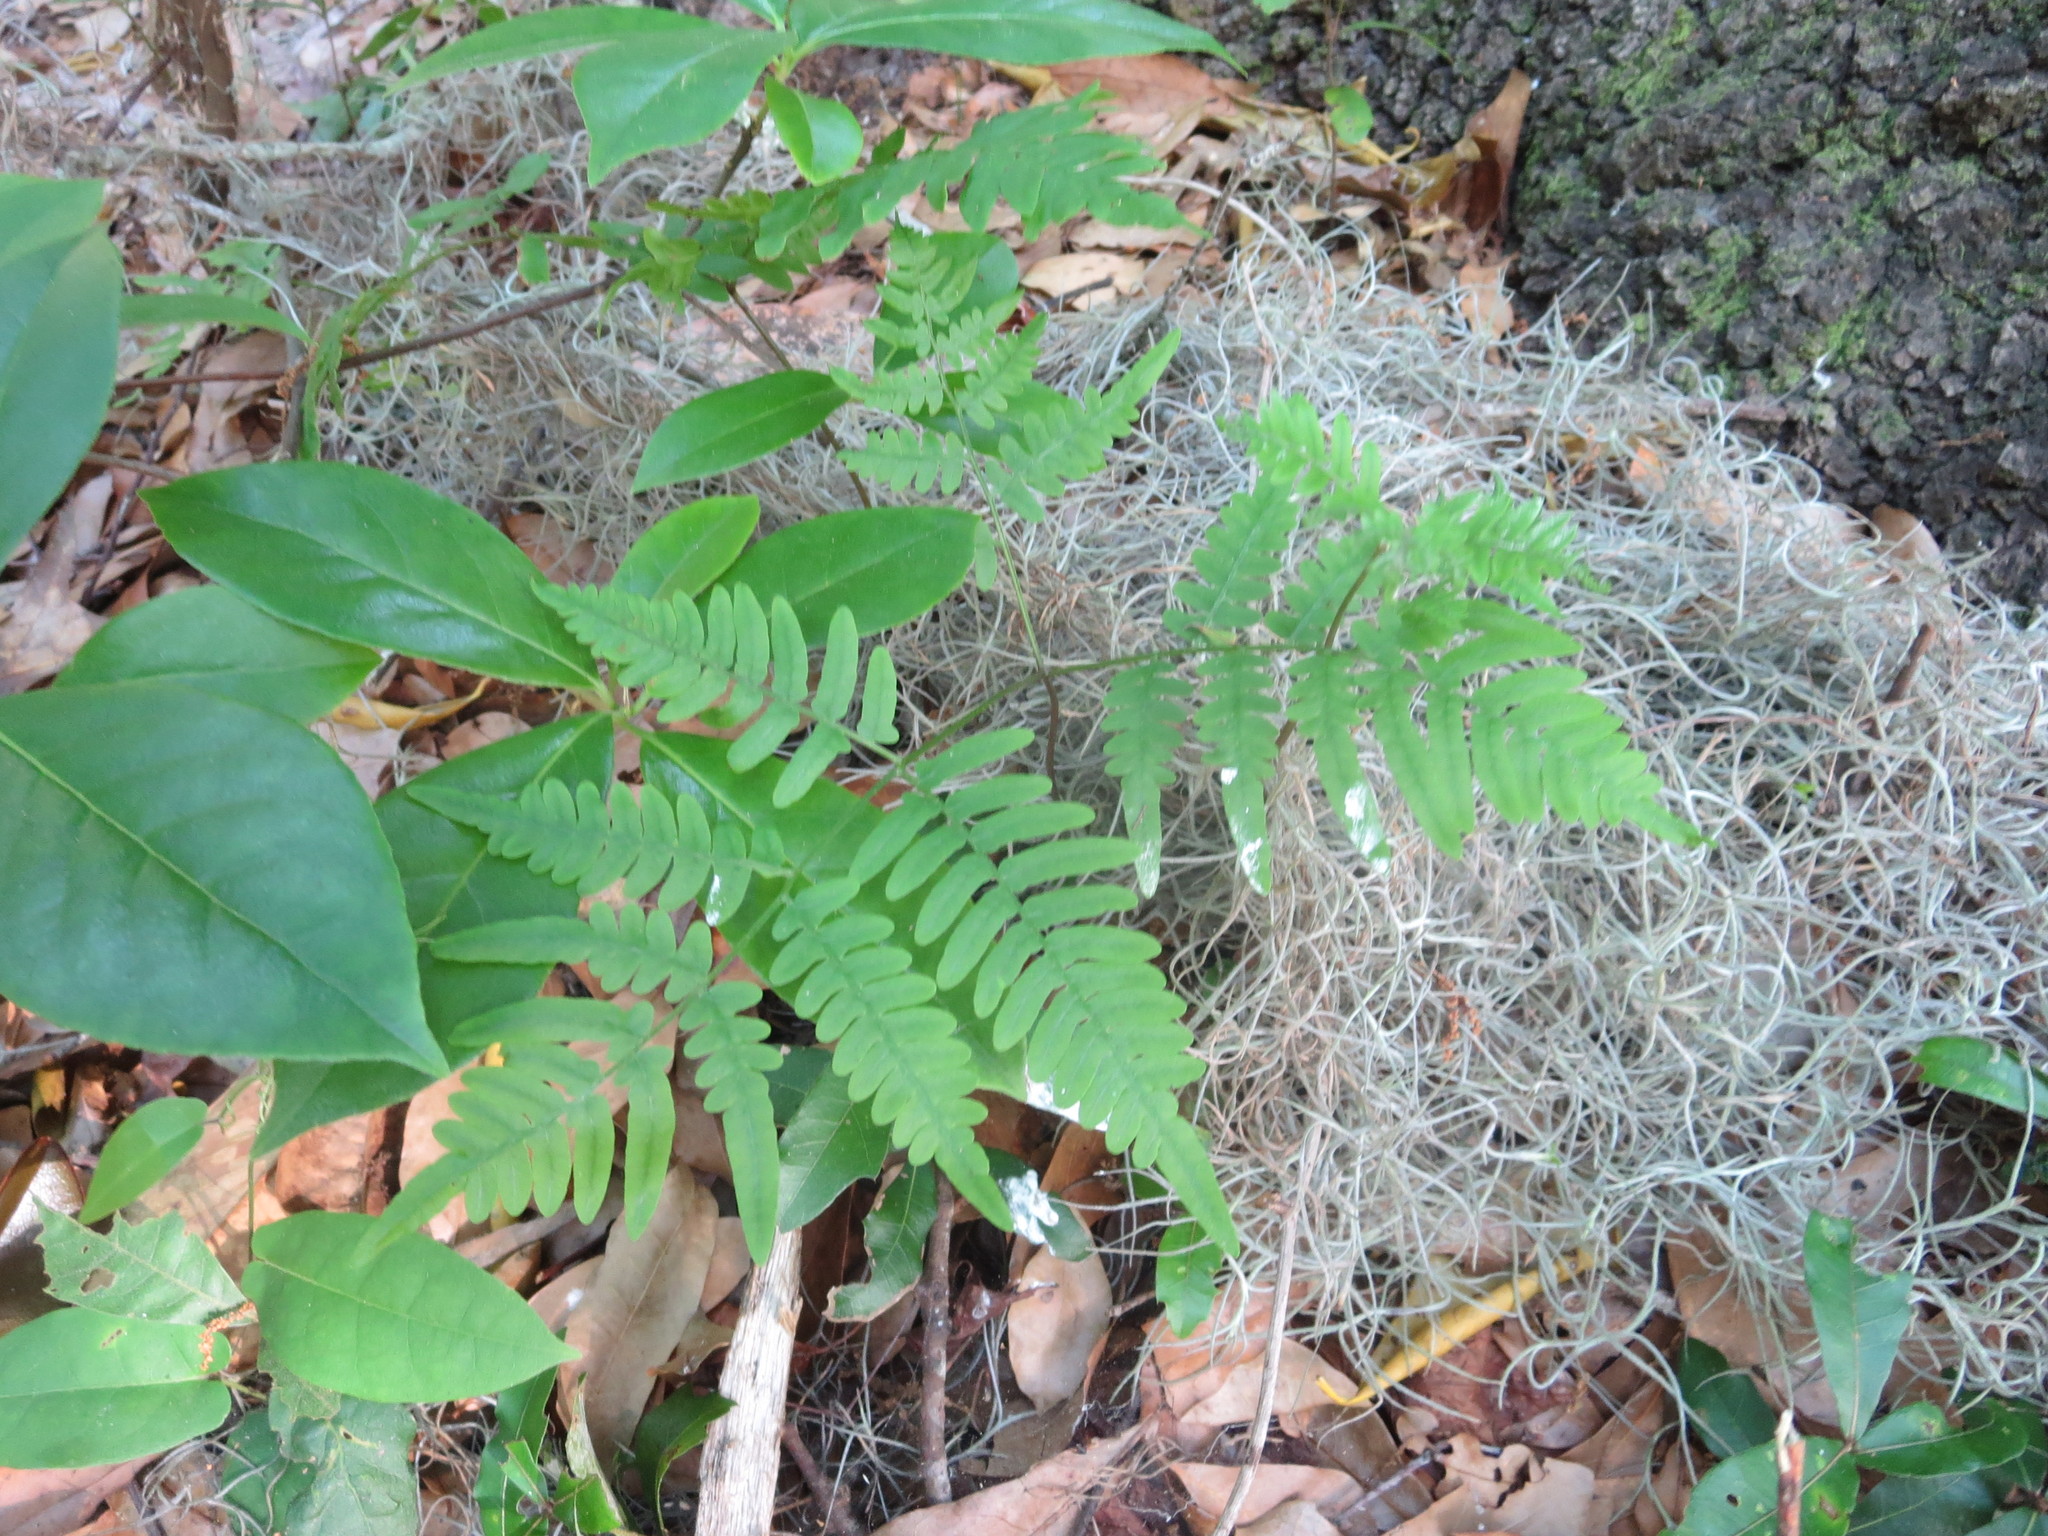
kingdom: Plantae
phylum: Tracheophyta
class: Polypodiopsida
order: Polypodiales
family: Dennstaedtiaceae
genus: Pteridium
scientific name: Pteridium
